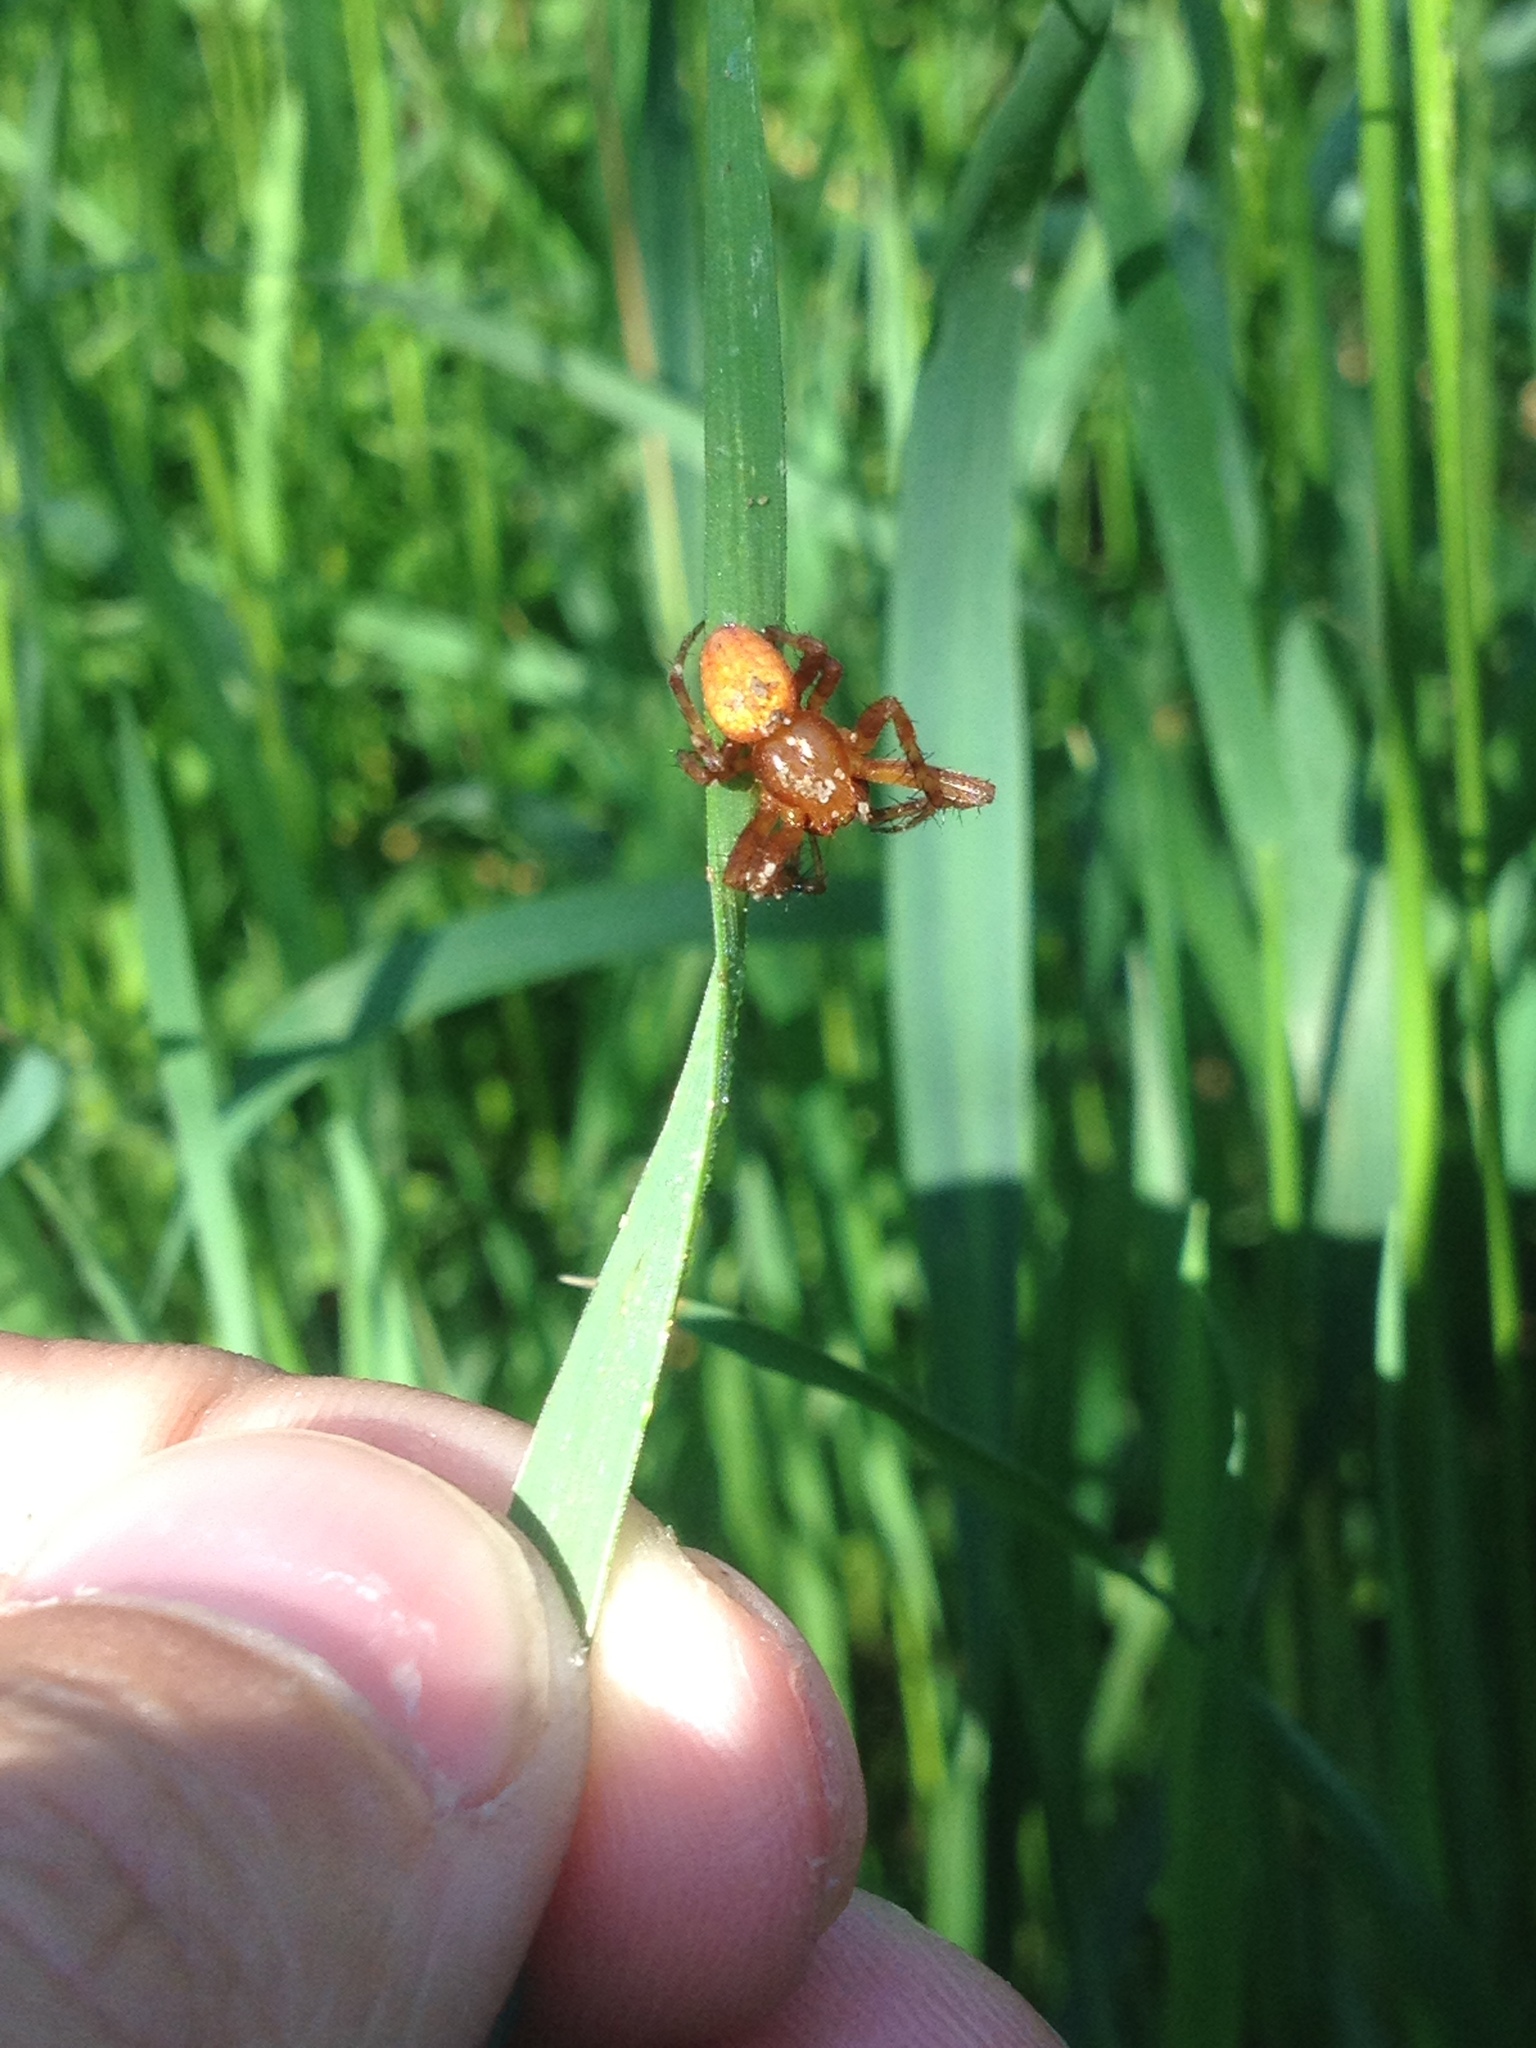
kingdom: Animalia
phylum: Arthropoda
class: Arachnida
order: Araneae
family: Araneidae
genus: Araneus
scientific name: Araneus alsine
